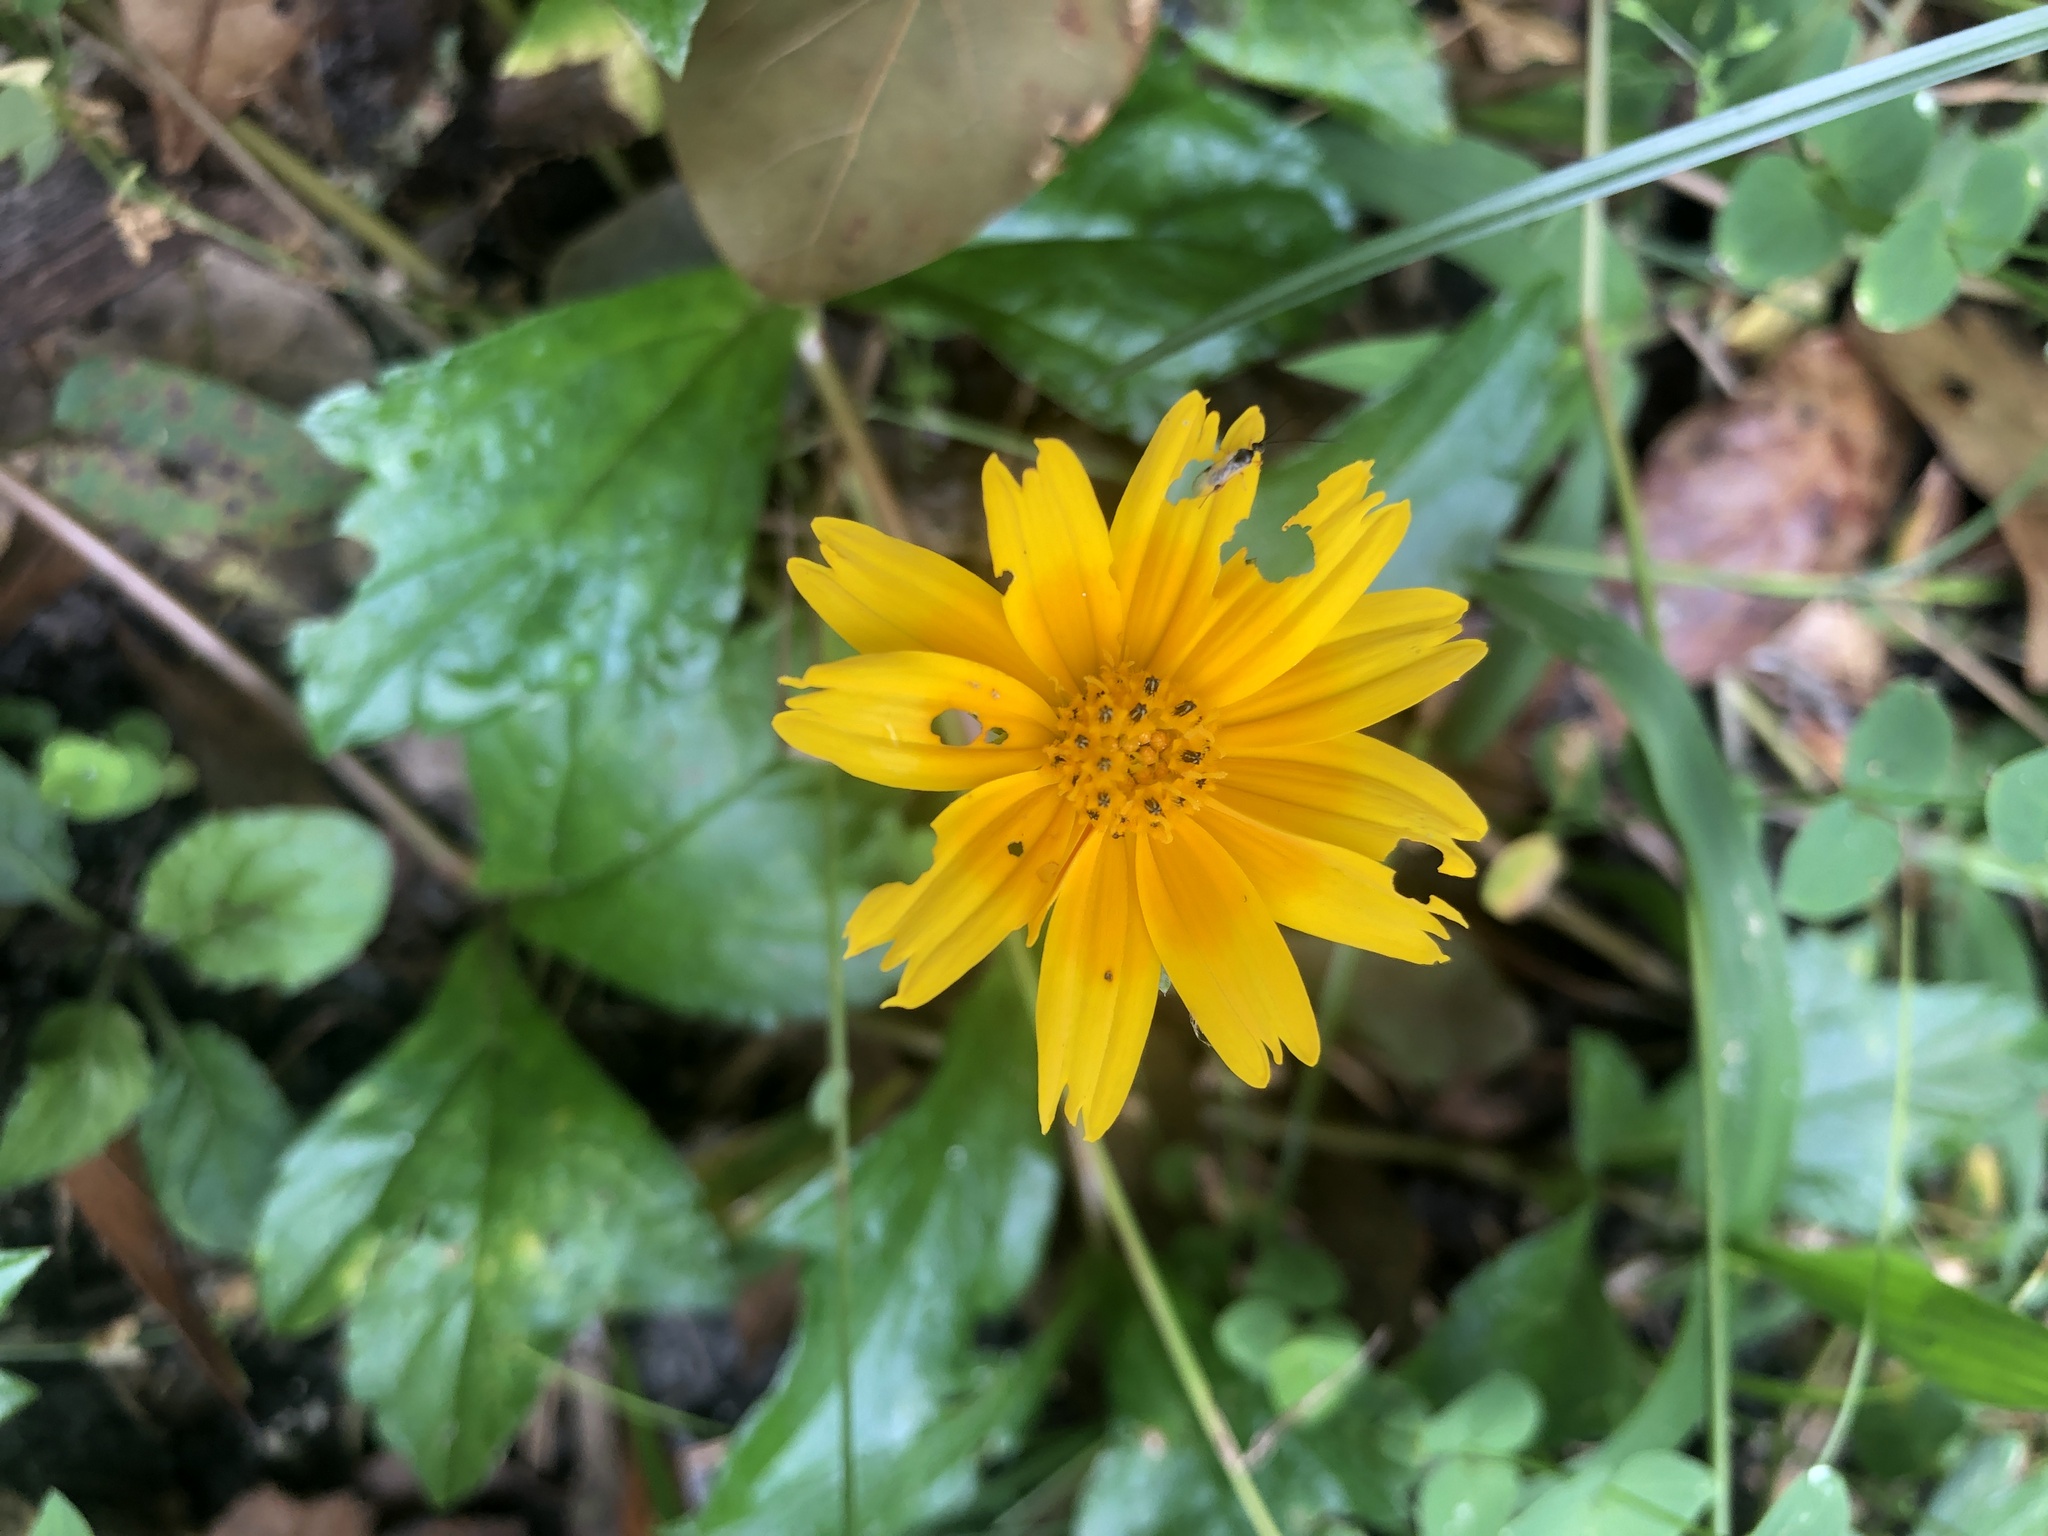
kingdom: Plantae
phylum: Tracheophyta
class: Magnoliopsida
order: Asterales
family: Asteraceae
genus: Sphagneticola
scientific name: Sphagneticola trilobata
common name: Bay biscayne creeping-oxeye
